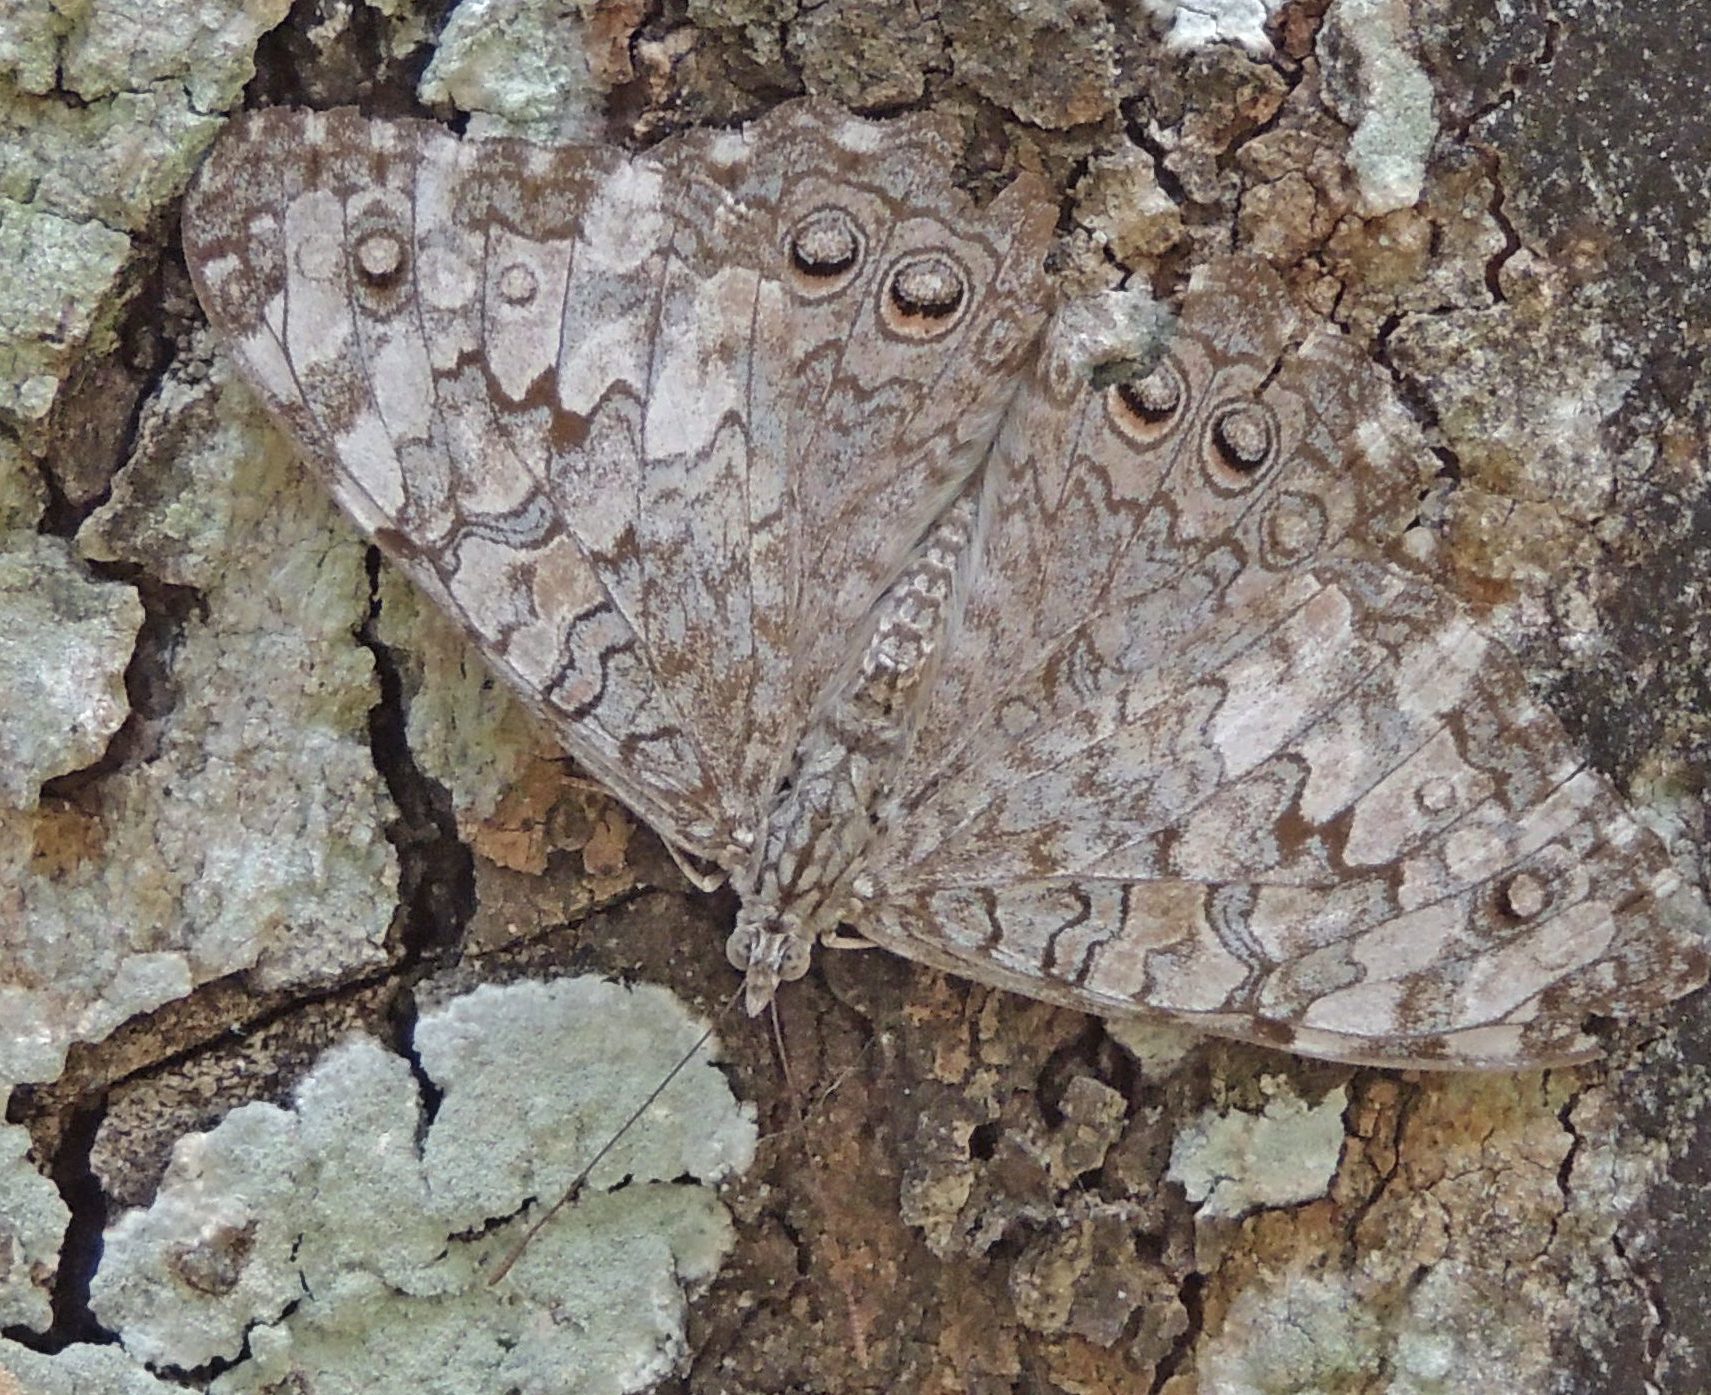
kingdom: Animalia
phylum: Arthropoda
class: Insecta
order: Lepidoptera
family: Nymphalidae
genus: Hamadryas
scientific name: Hamadryas februa
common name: Gray cracker
